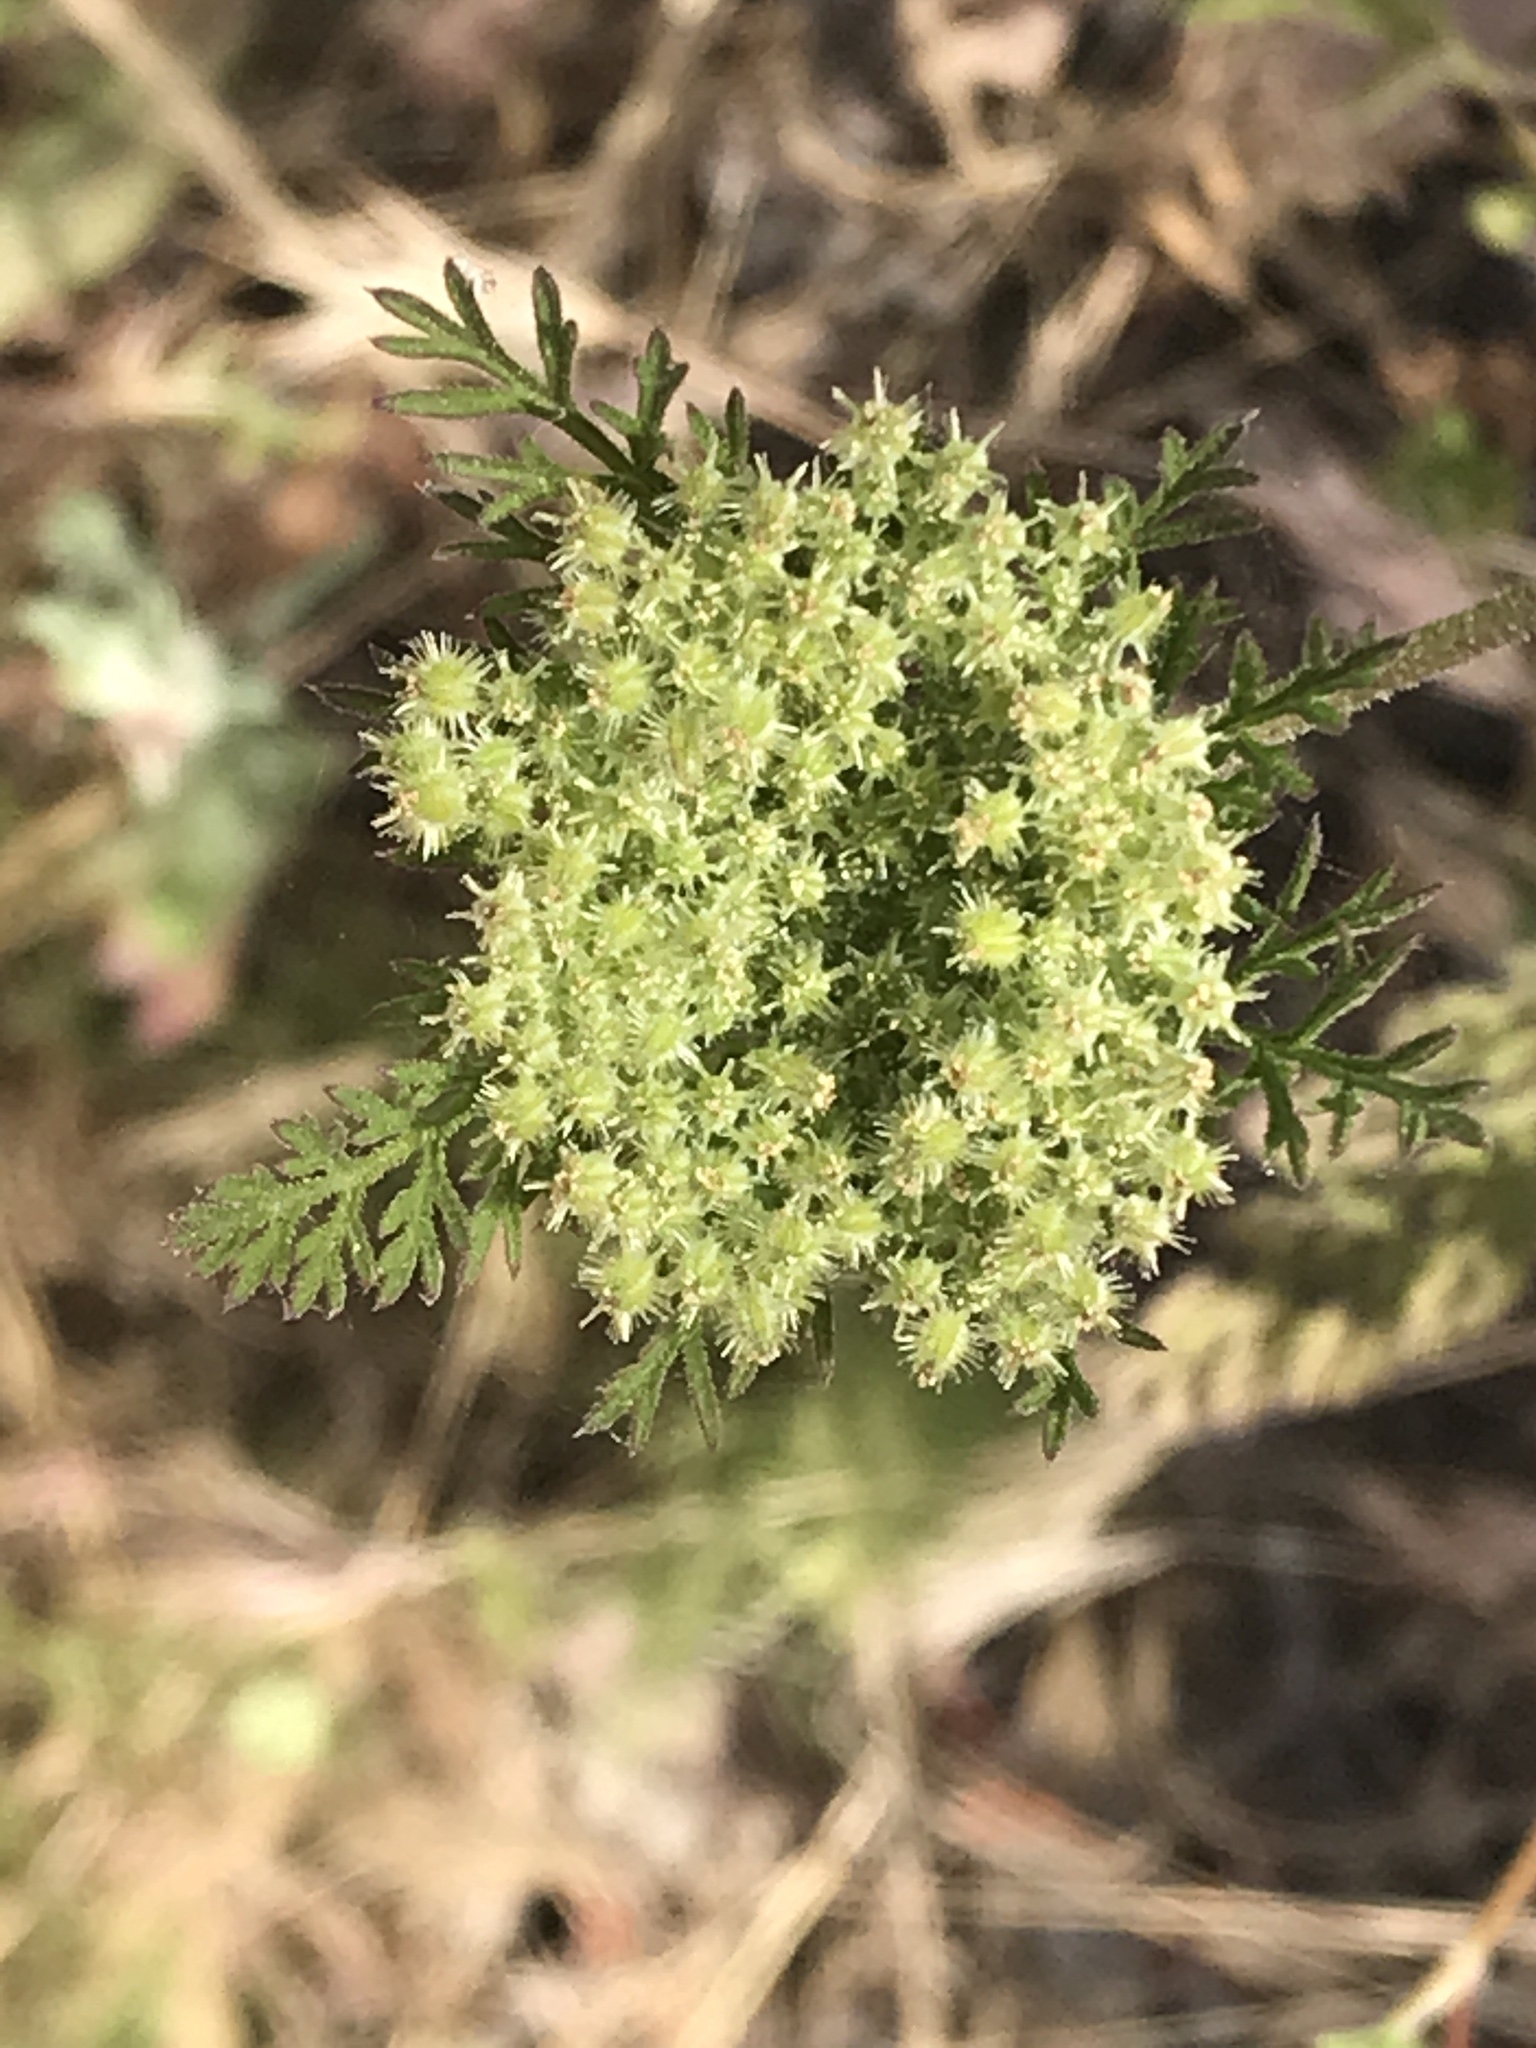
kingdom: Plantae
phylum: Tracheophyta
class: Magnoliopsida
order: Apiales
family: Apiaceae
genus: Daucus
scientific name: Daucus pusillus
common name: Southwest wild carrot
